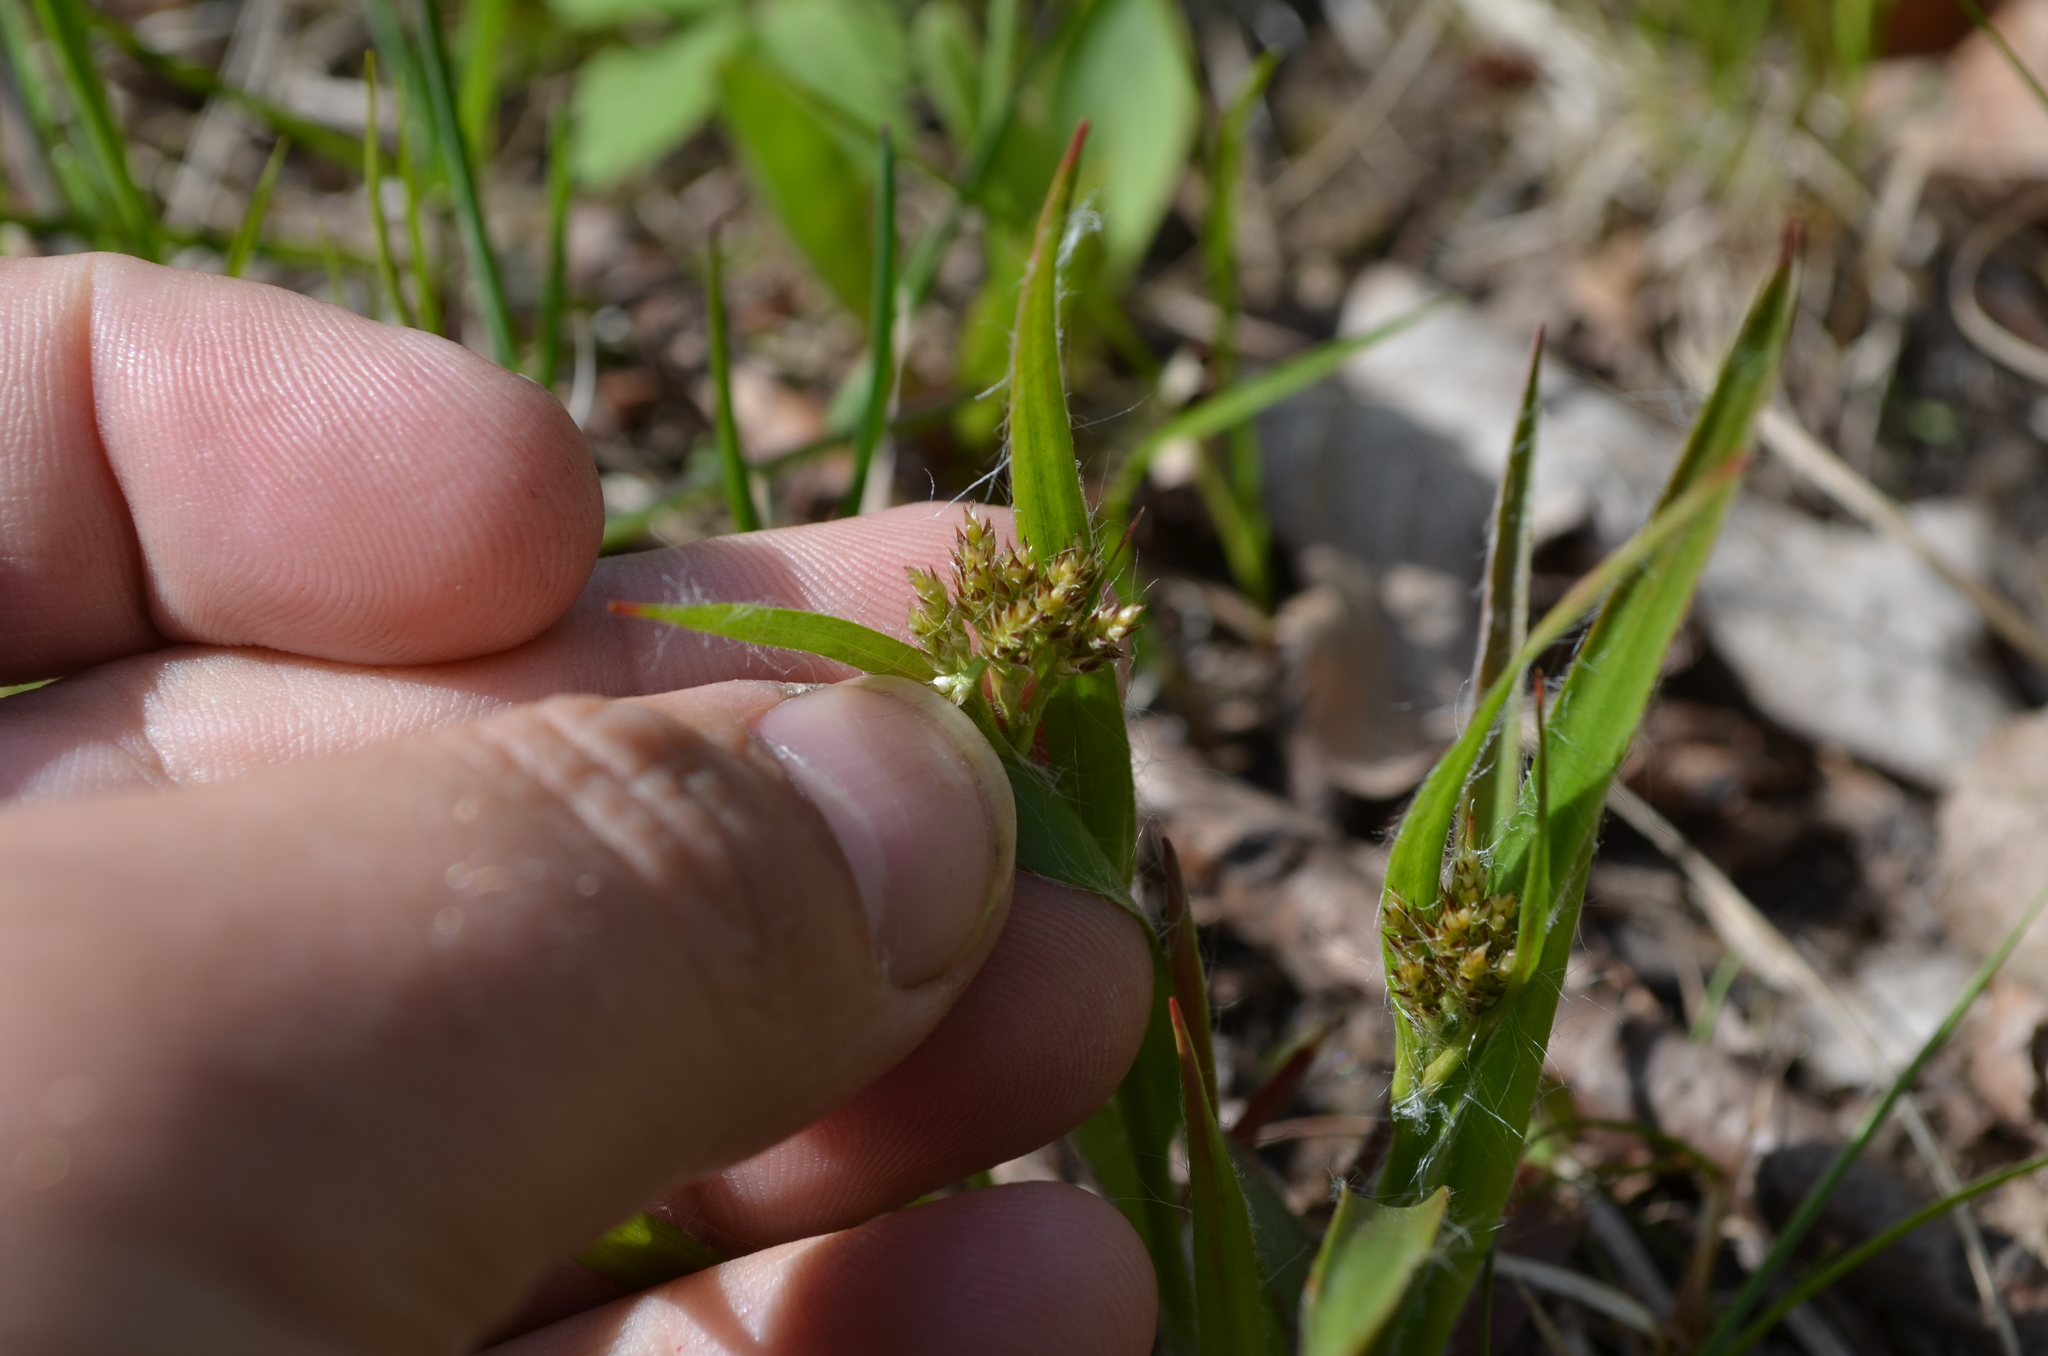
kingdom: Plantae
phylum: Tracheophyta
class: Liliopsida
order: Poales
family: Juncaceae
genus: Luzula
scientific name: Luzula multiflora
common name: Heath wood-rush
